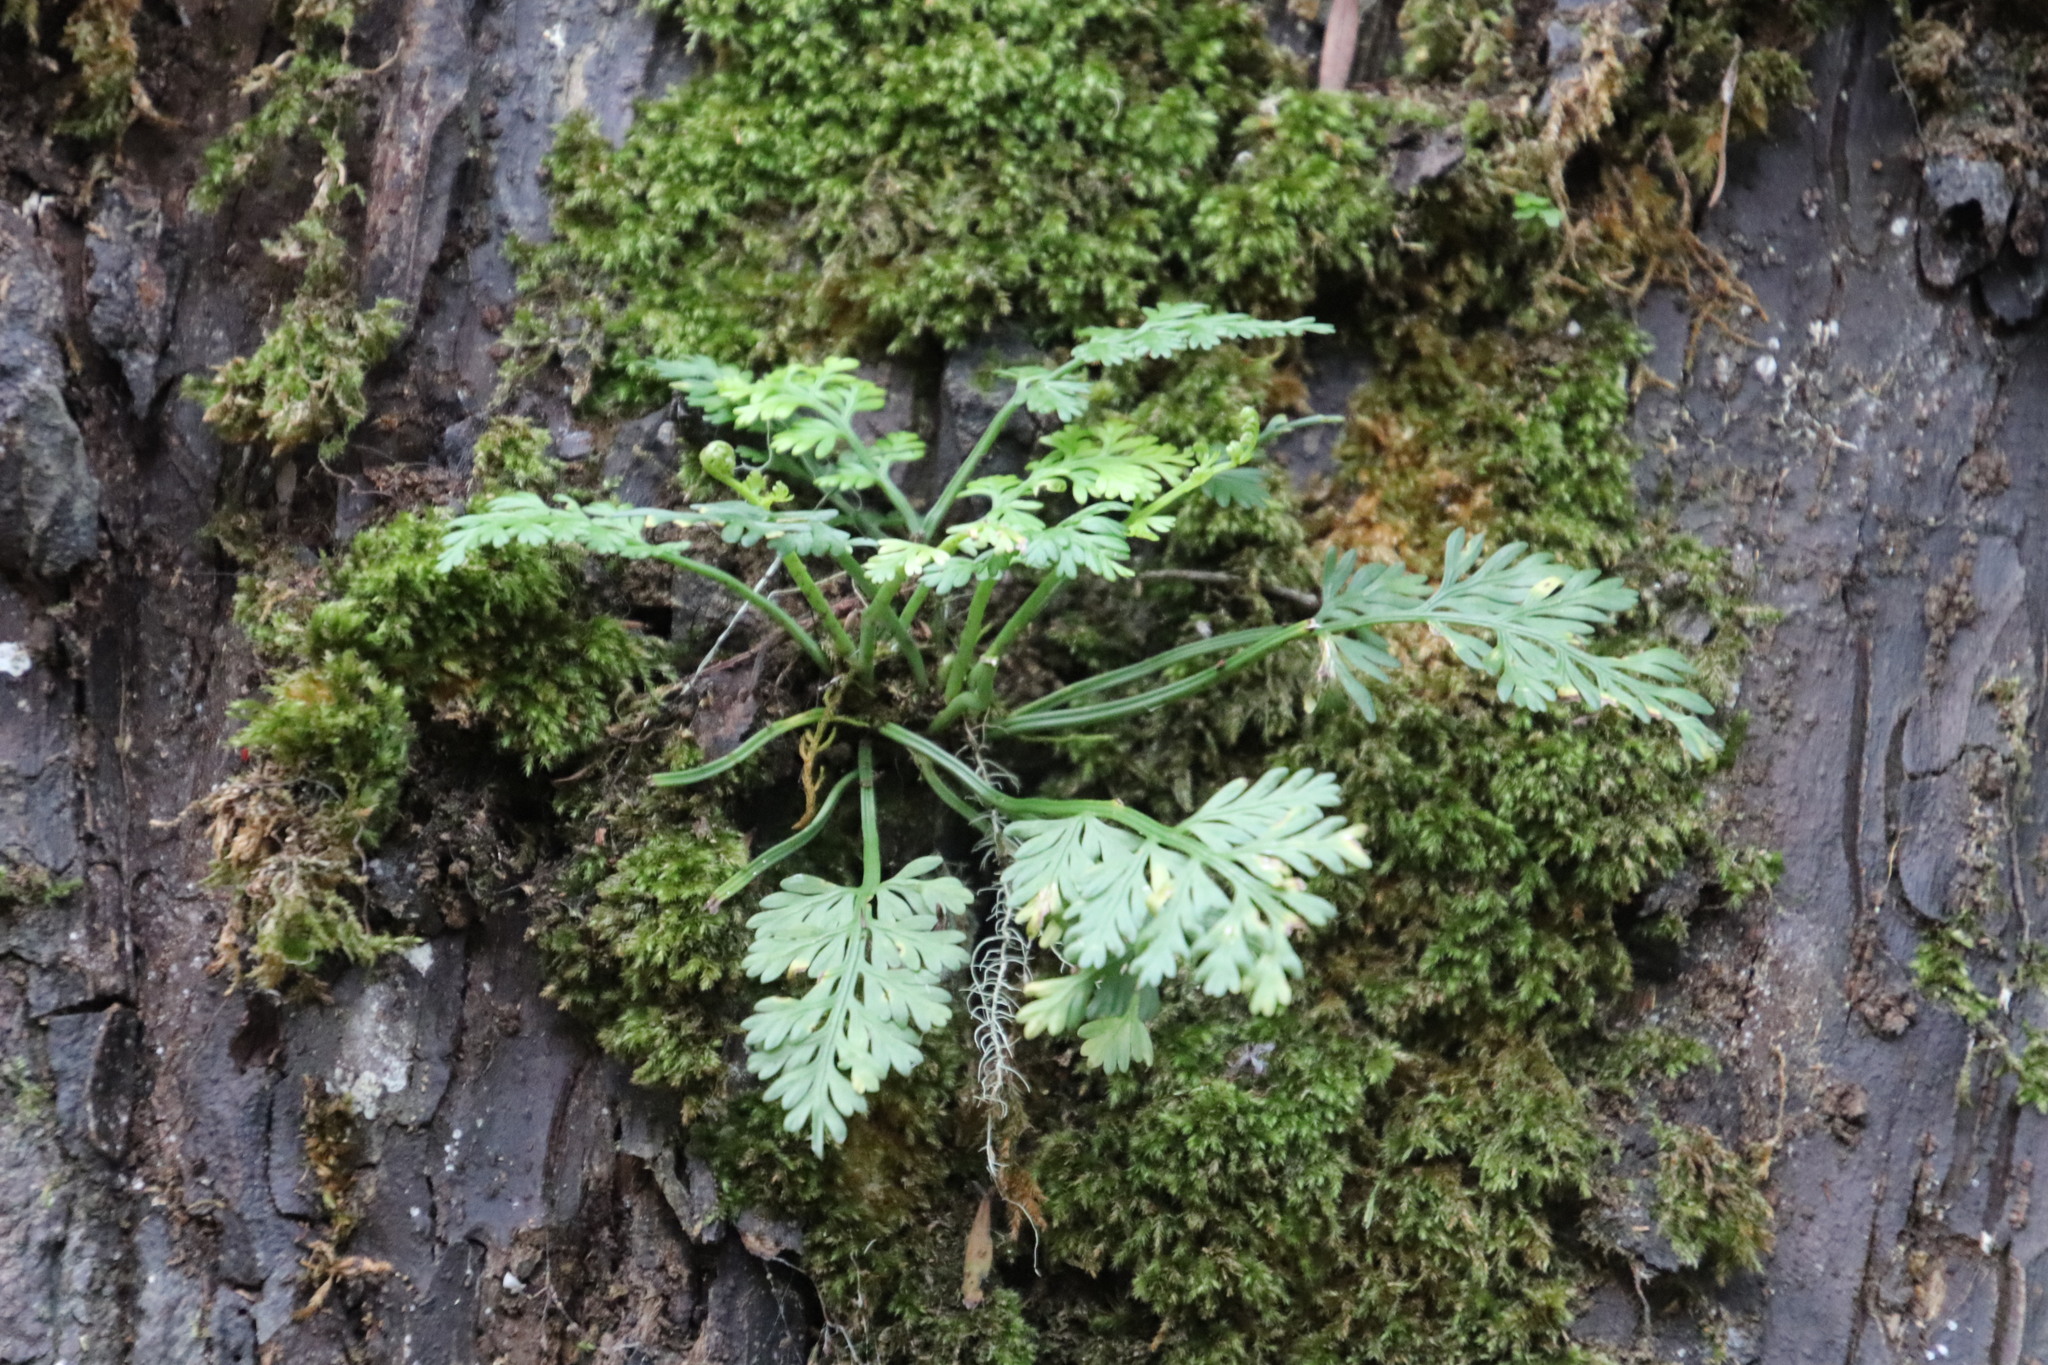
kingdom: Plantae
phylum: Tracheophyta
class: Polypodiopsida
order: Polypodiales
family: Aspleniaceae
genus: Asplenium
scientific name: Asplenium rutifolium
